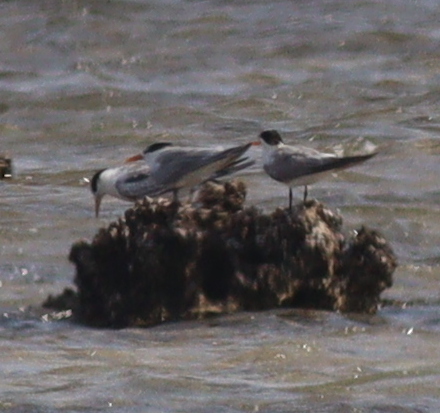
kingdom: Animalia
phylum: Chordata
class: Aves
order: Charadriiformes
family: Laridae
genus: Thalasseus
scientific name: Thalasseus bengalensis
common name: Lesser crested tern
